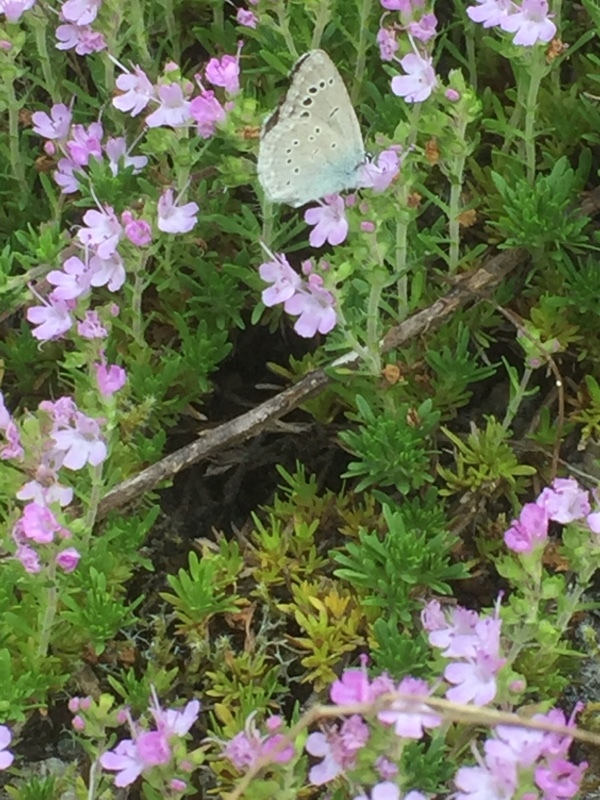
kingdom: Animalia
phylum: Arthropoda
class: Insecta
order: Lepidoptera
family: Lycaenidae
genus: Glaucopsyche
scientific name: Glaucopsyche melanops
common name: Black-eyed blue
